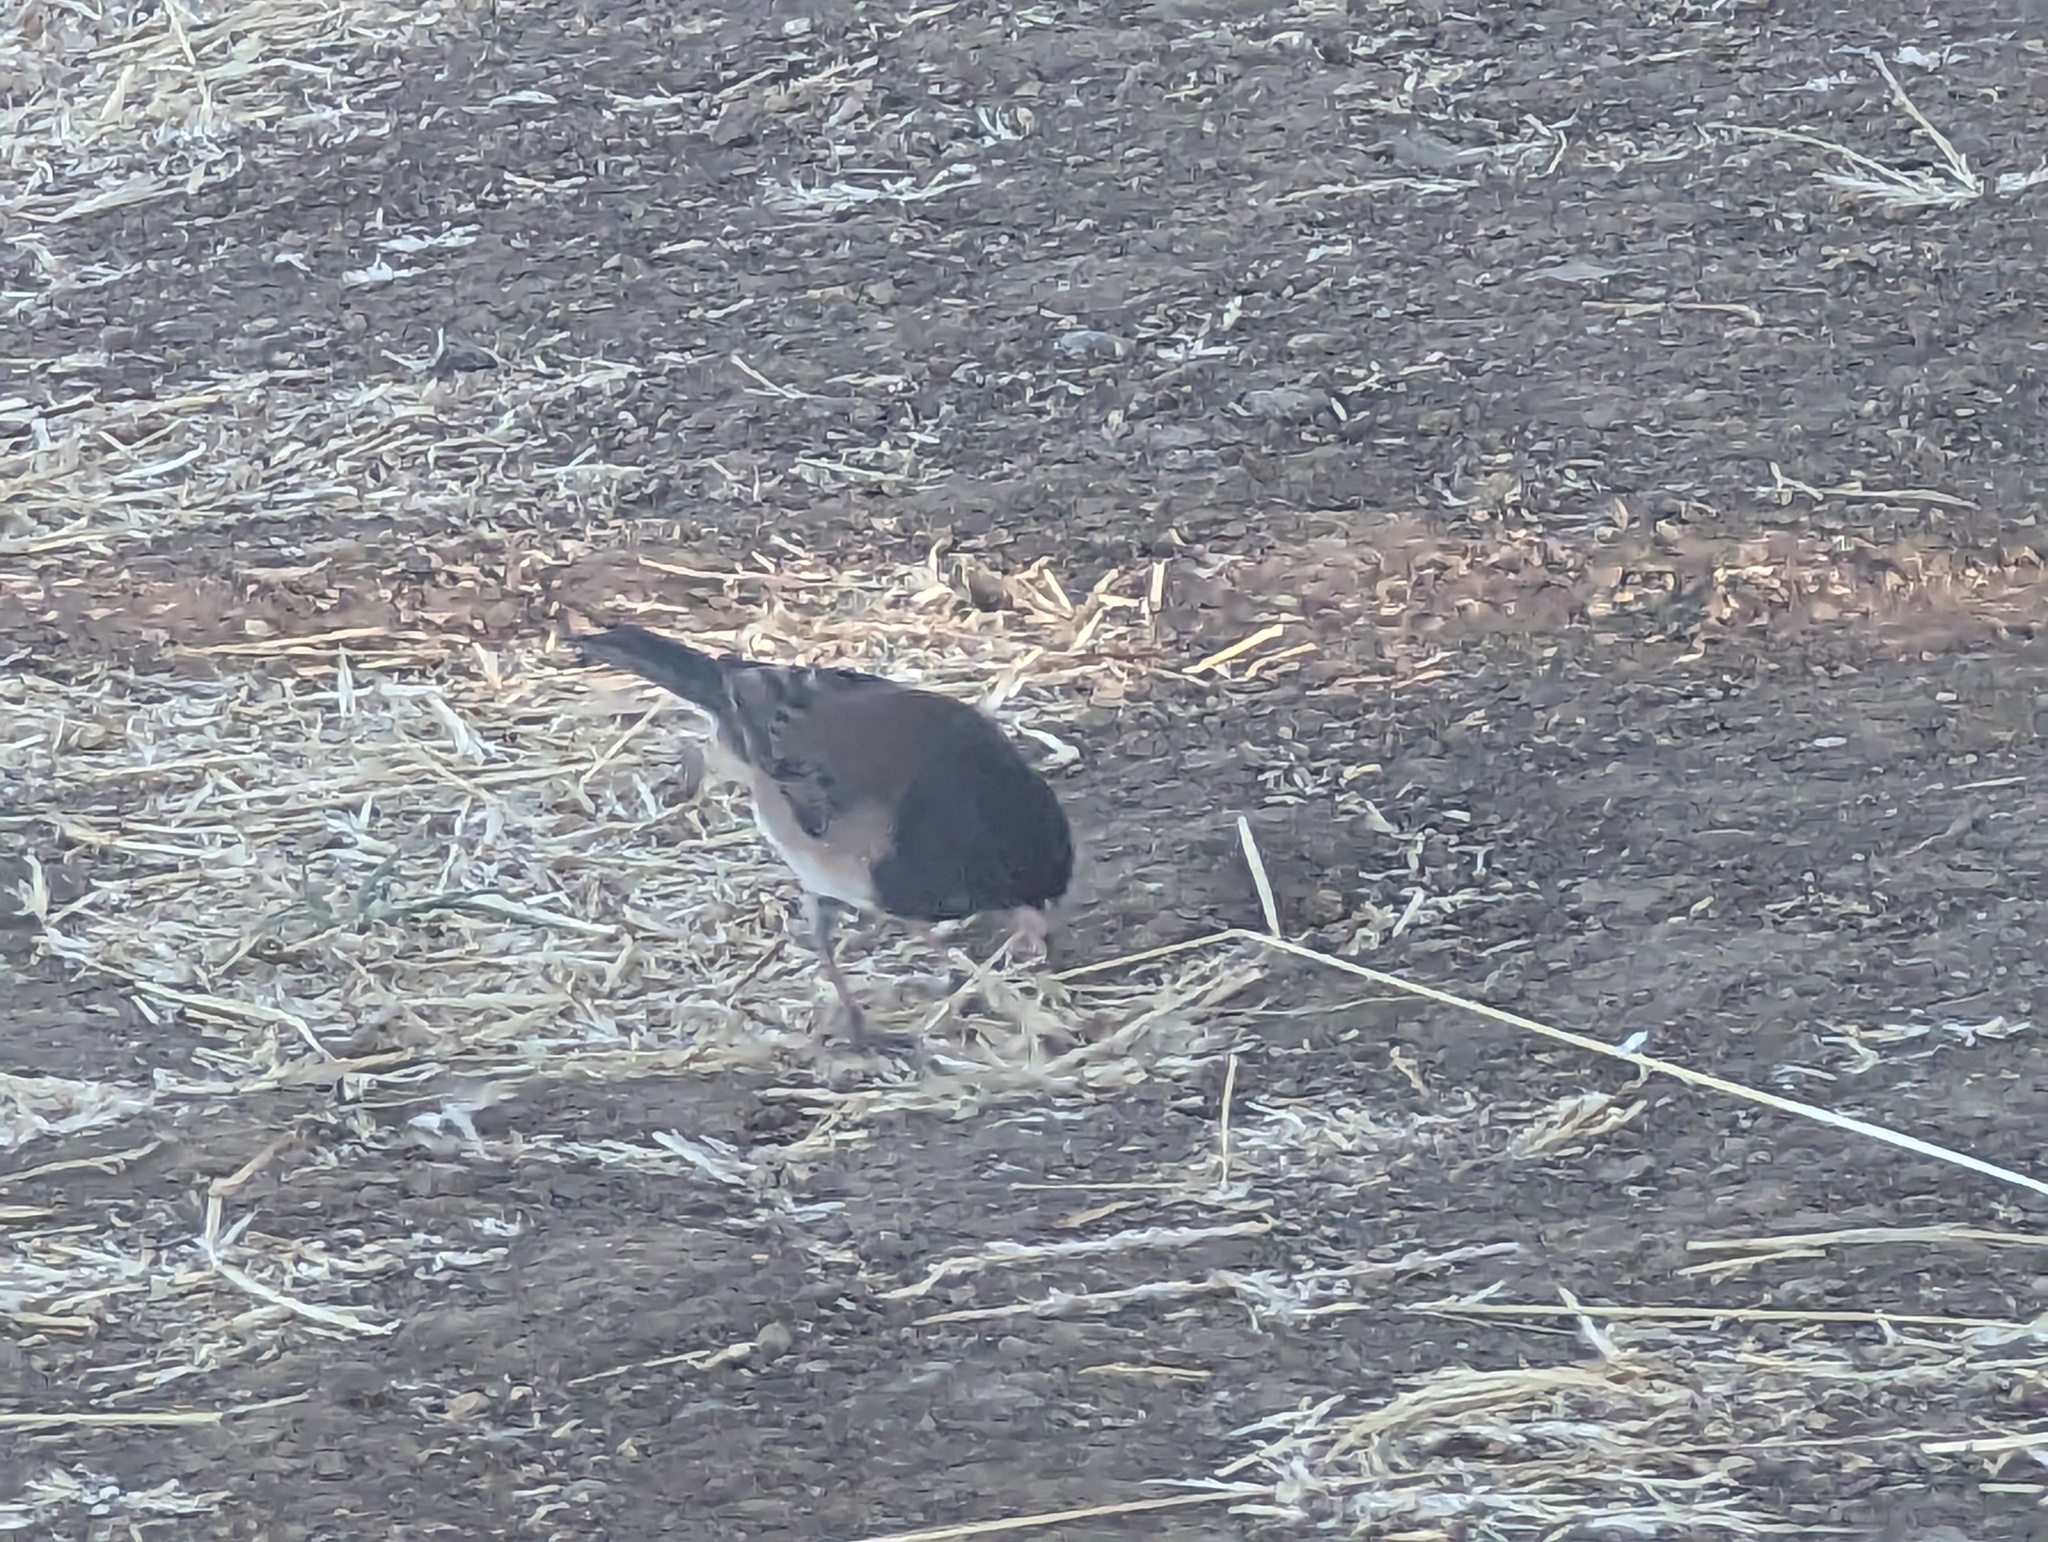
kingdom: Animalia
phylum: Chordata
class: Aves
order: Passeriformes
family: Passerellidae
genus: Junco
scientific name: Junco hyemalis
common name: Dark-eyed junco
